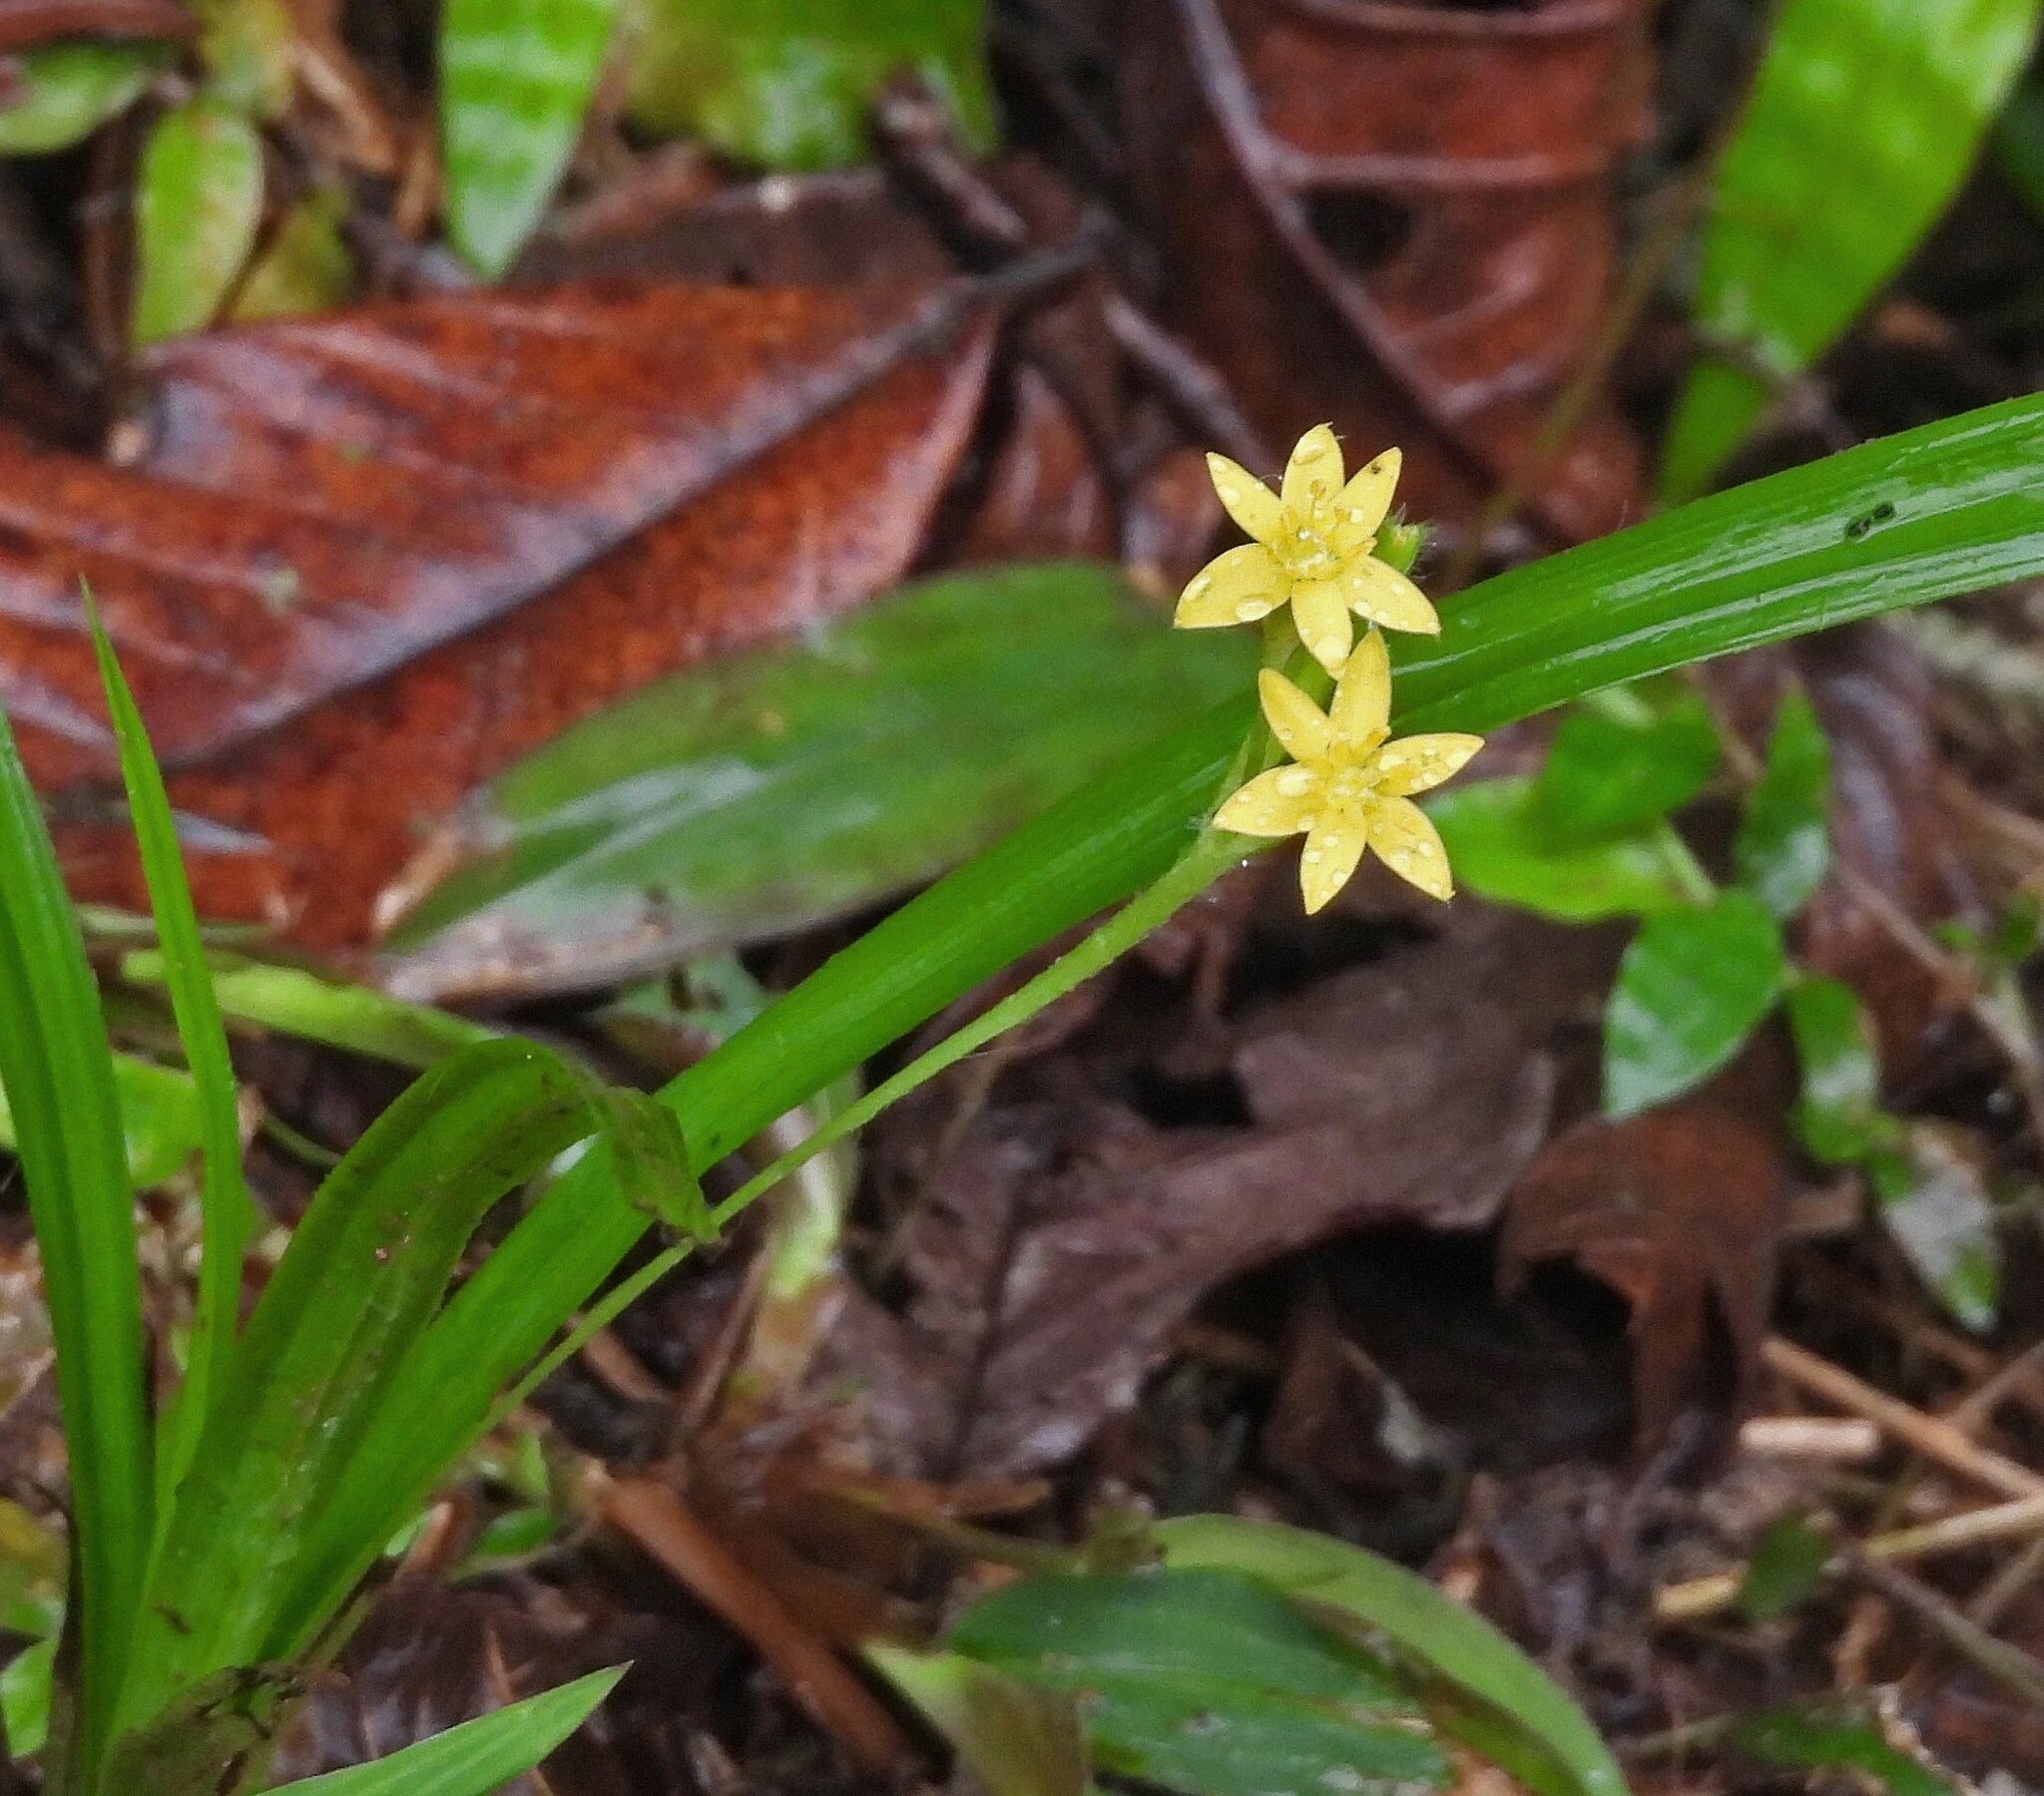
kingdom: Plantae
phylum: Tracheophyta
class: Liliopsida
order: Asparagales
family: Hypoxidaceae
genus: Hypoxis
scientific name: Hypoxis decumbens
